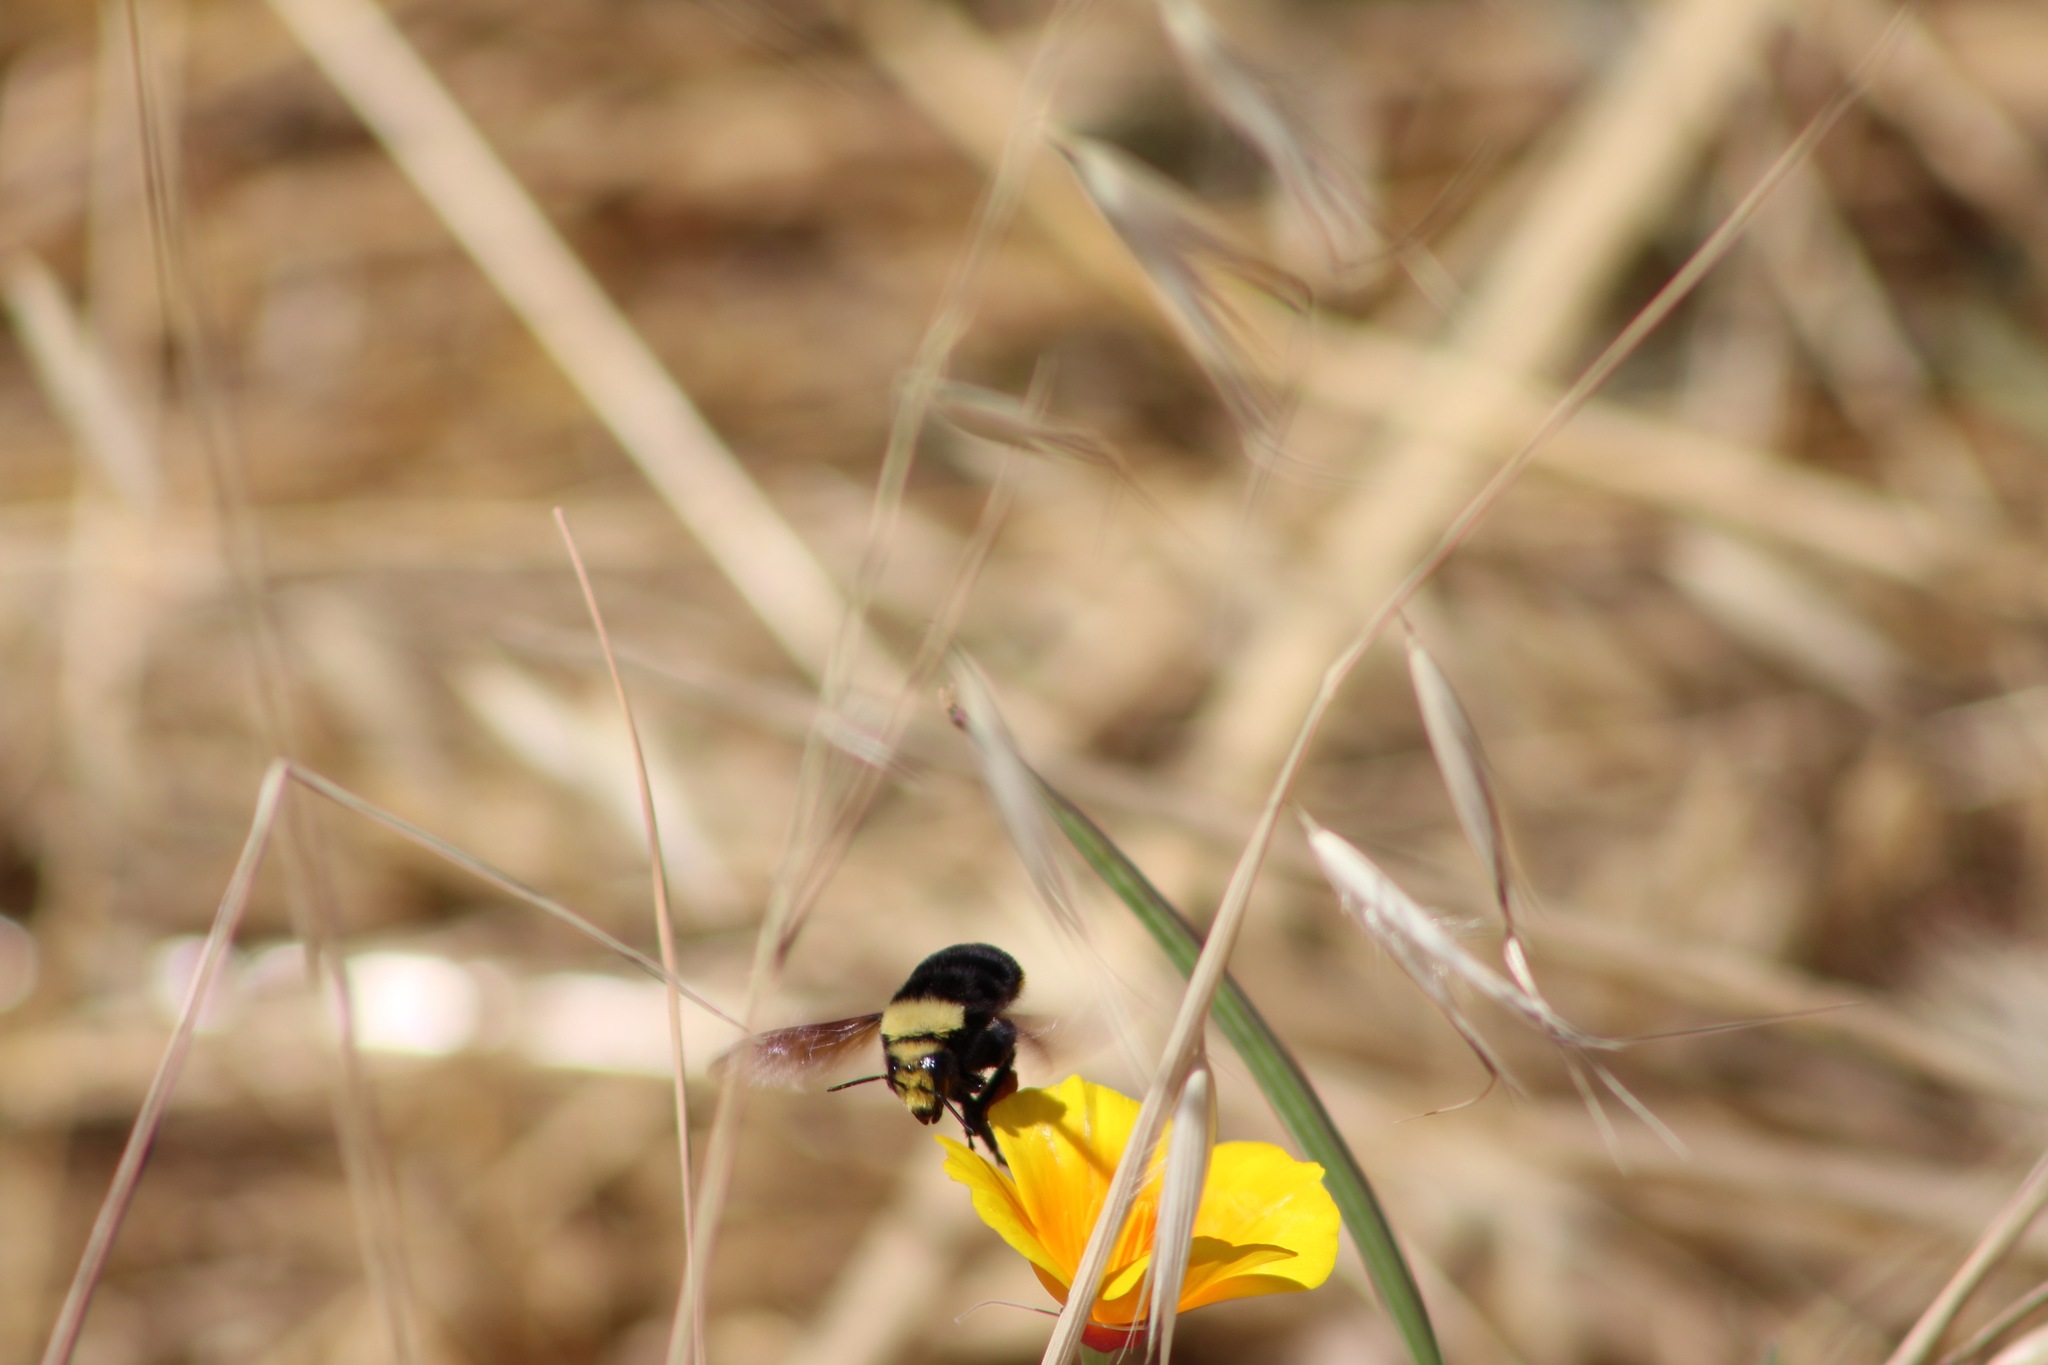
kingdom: Animalia
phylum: Arthropoda
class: Insecta
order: Hymenoptera
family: Apidae
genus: Pyrobombus
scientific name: Pyrobombus
